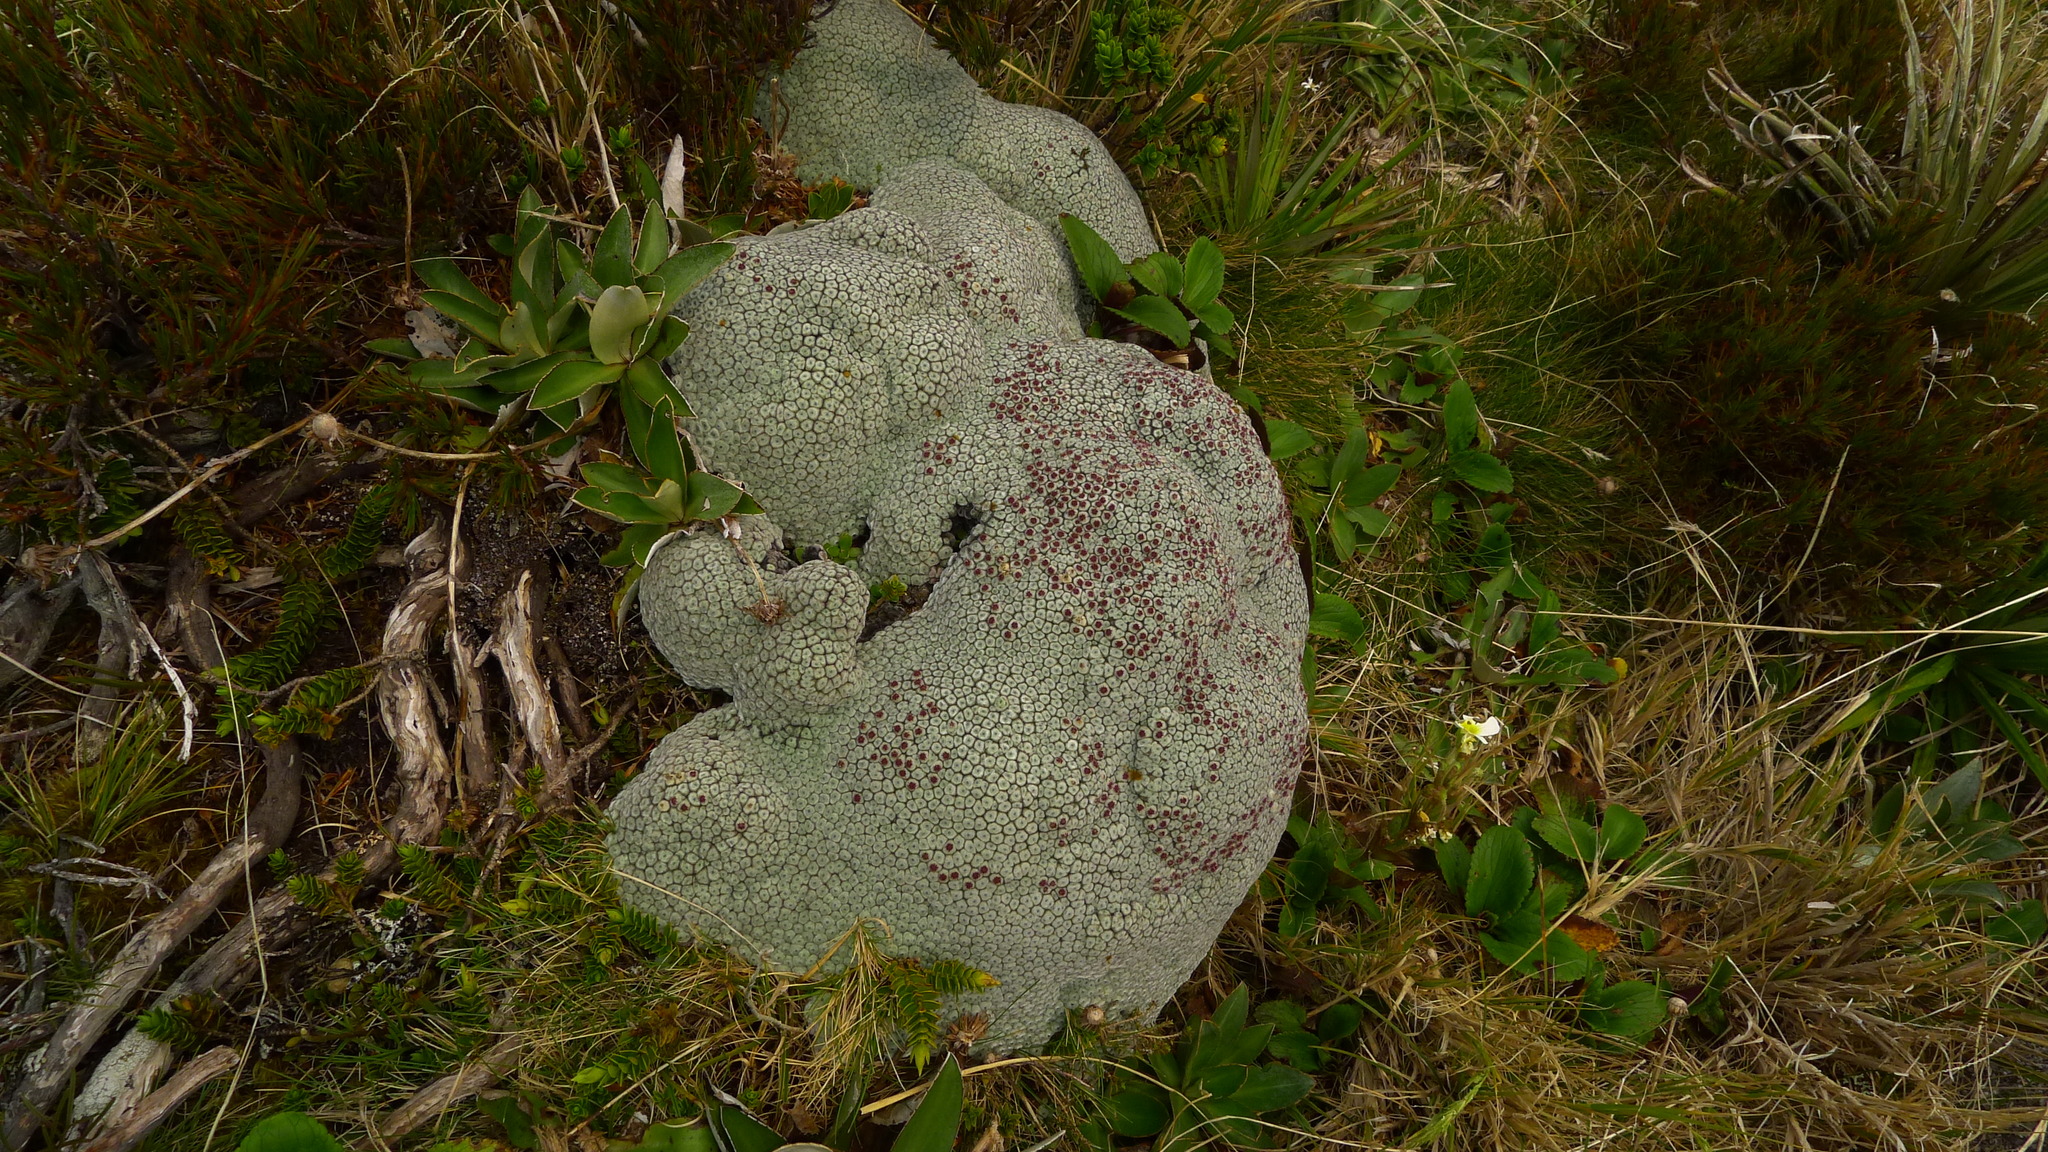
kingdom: Plantae
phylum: Tracheophyta
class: Magnoliopsida
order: Asterales
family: Asteraceae
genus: Raoulia
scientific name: Raoulia eximia
